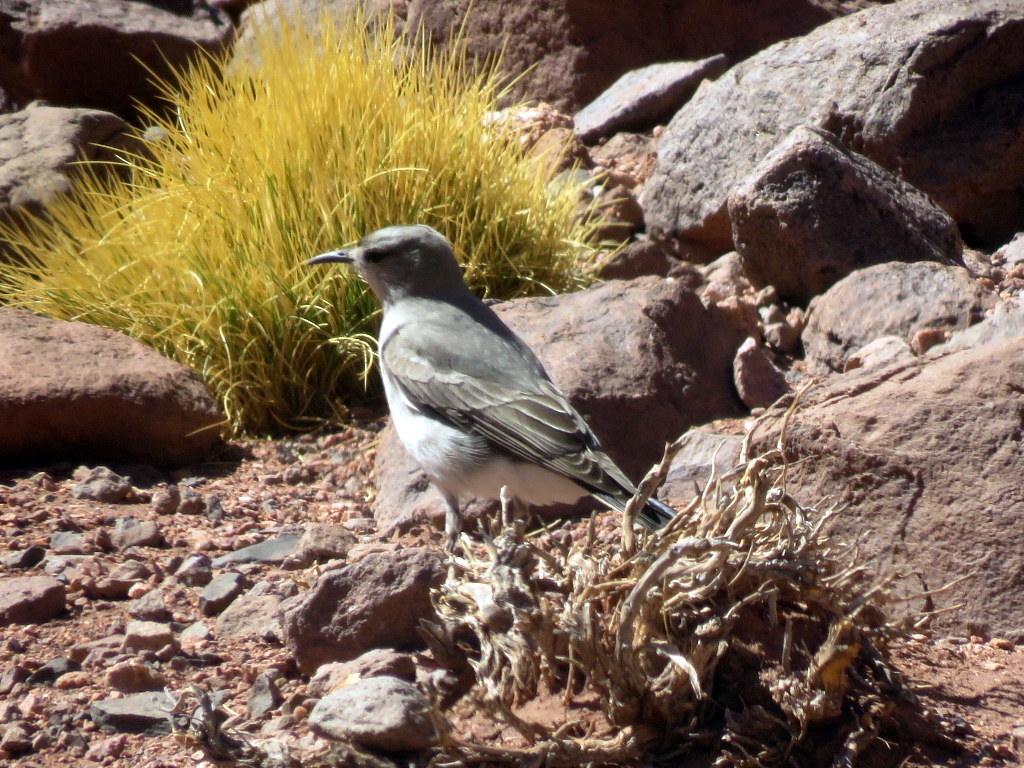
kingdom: Animalia
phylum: Chordata
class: Aves
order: Passeriformes
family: Tyrannidae
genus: Muscisaxicola
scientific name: Muscisaxicola frontalis
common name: Black-fronted ground tyrant
